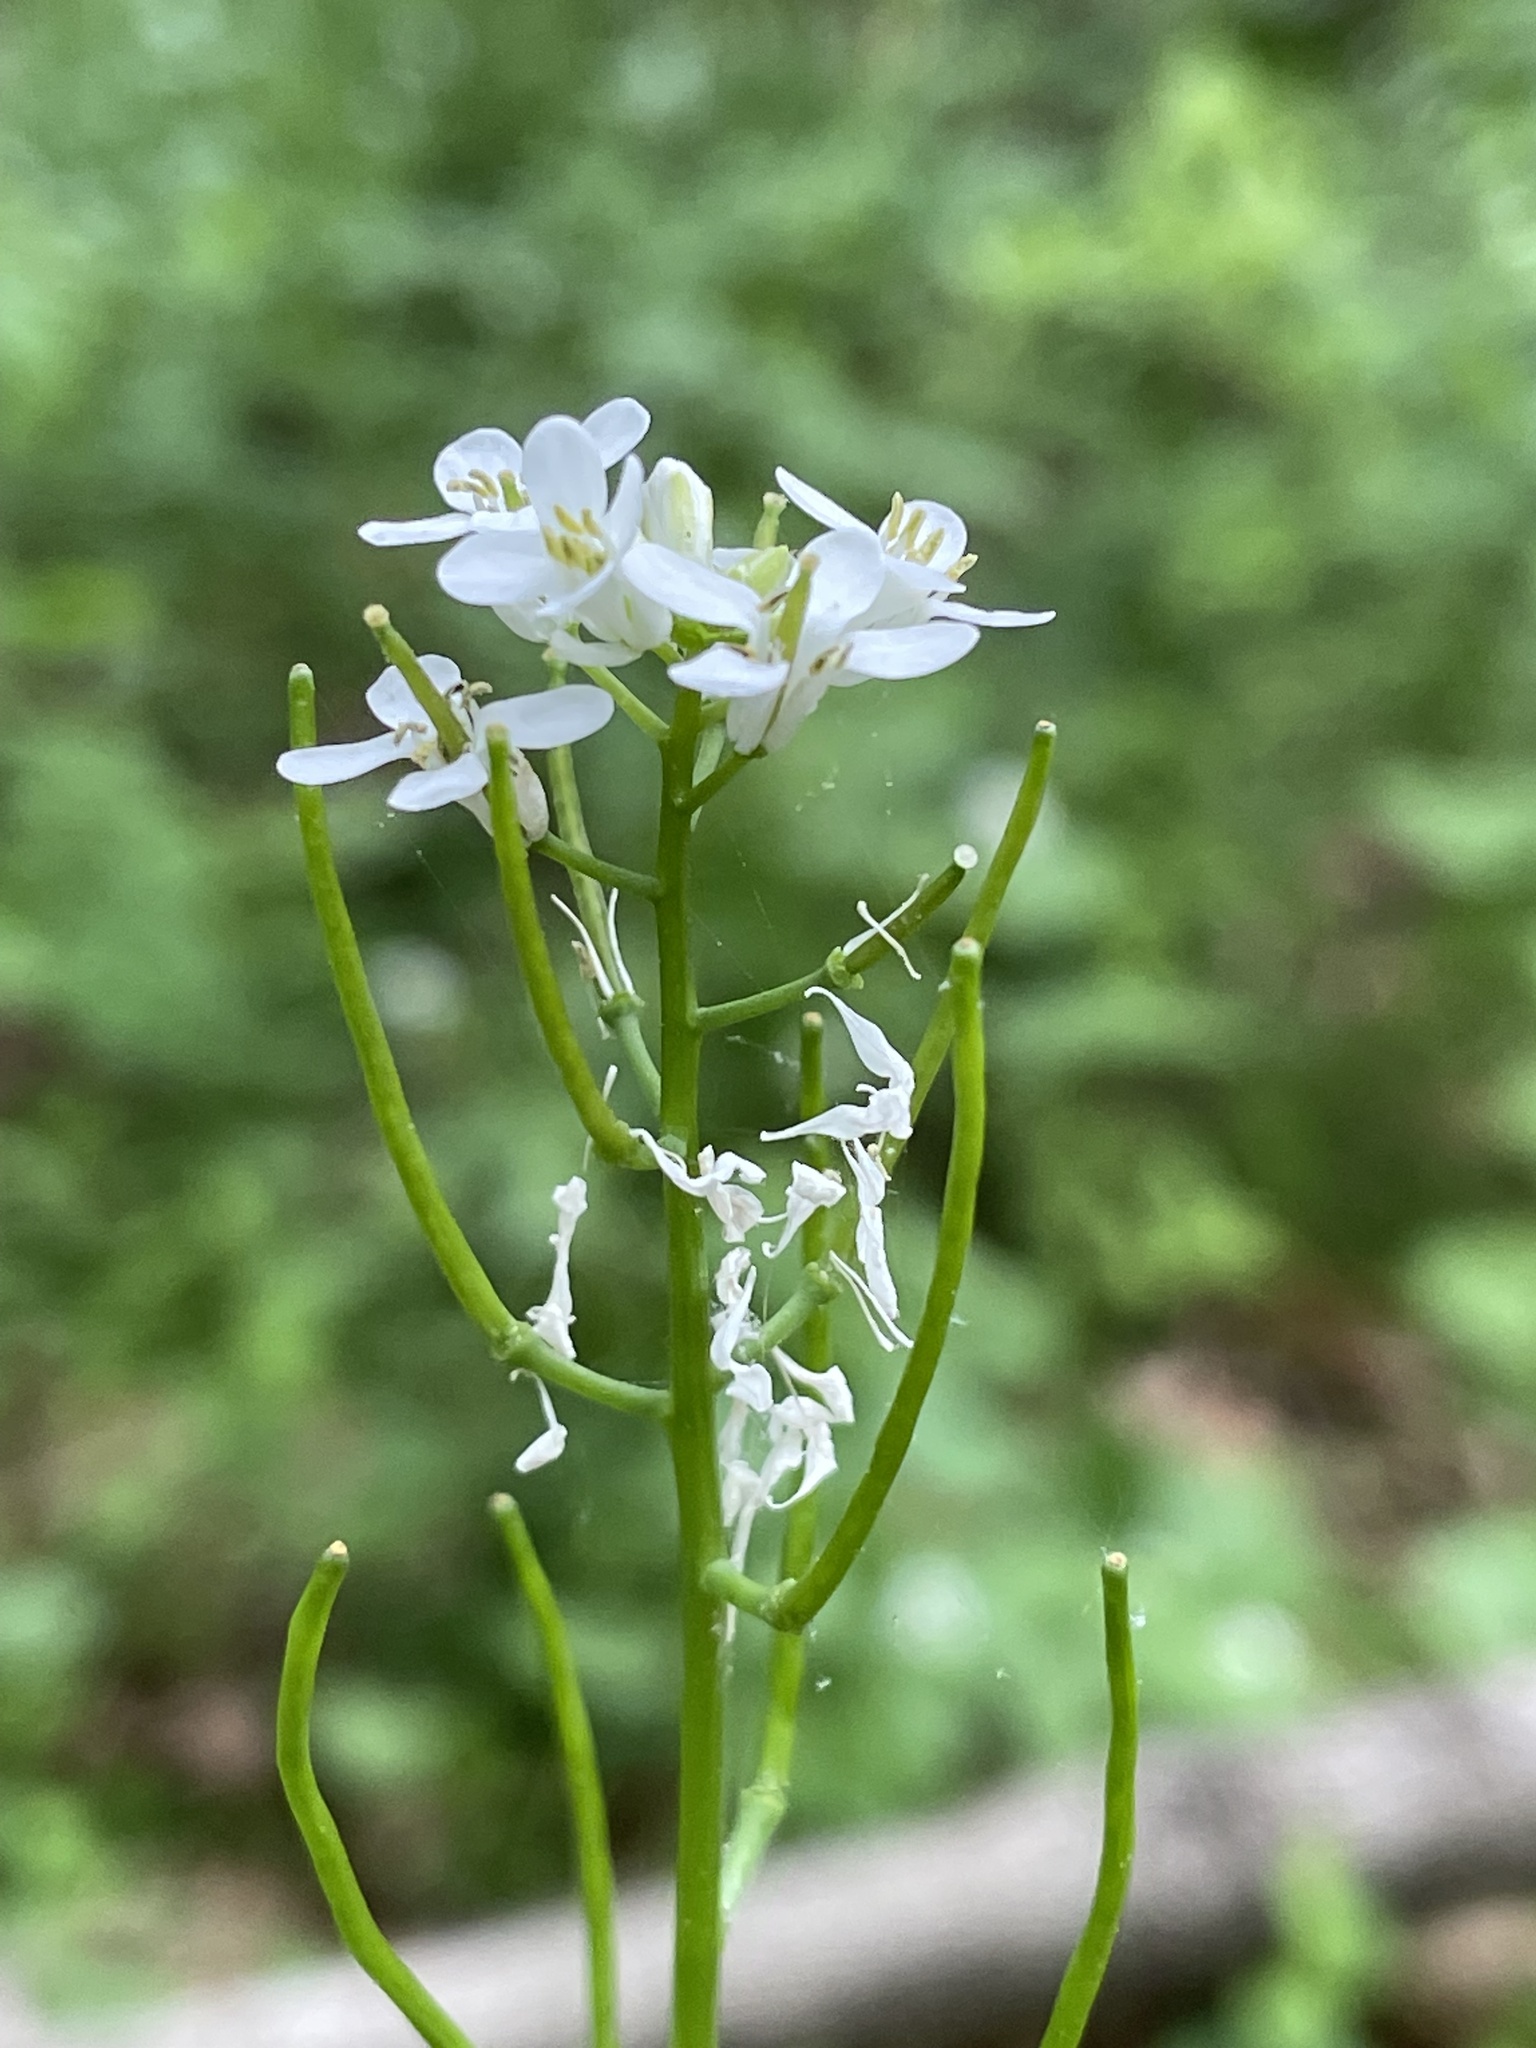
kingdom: Plantae
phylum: Tracheophyta
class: Magnoliopsida
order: Brassicales
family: Brassicaceae
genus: Alliaria
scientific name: Alliaria petiolata
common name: Garlic mustard
